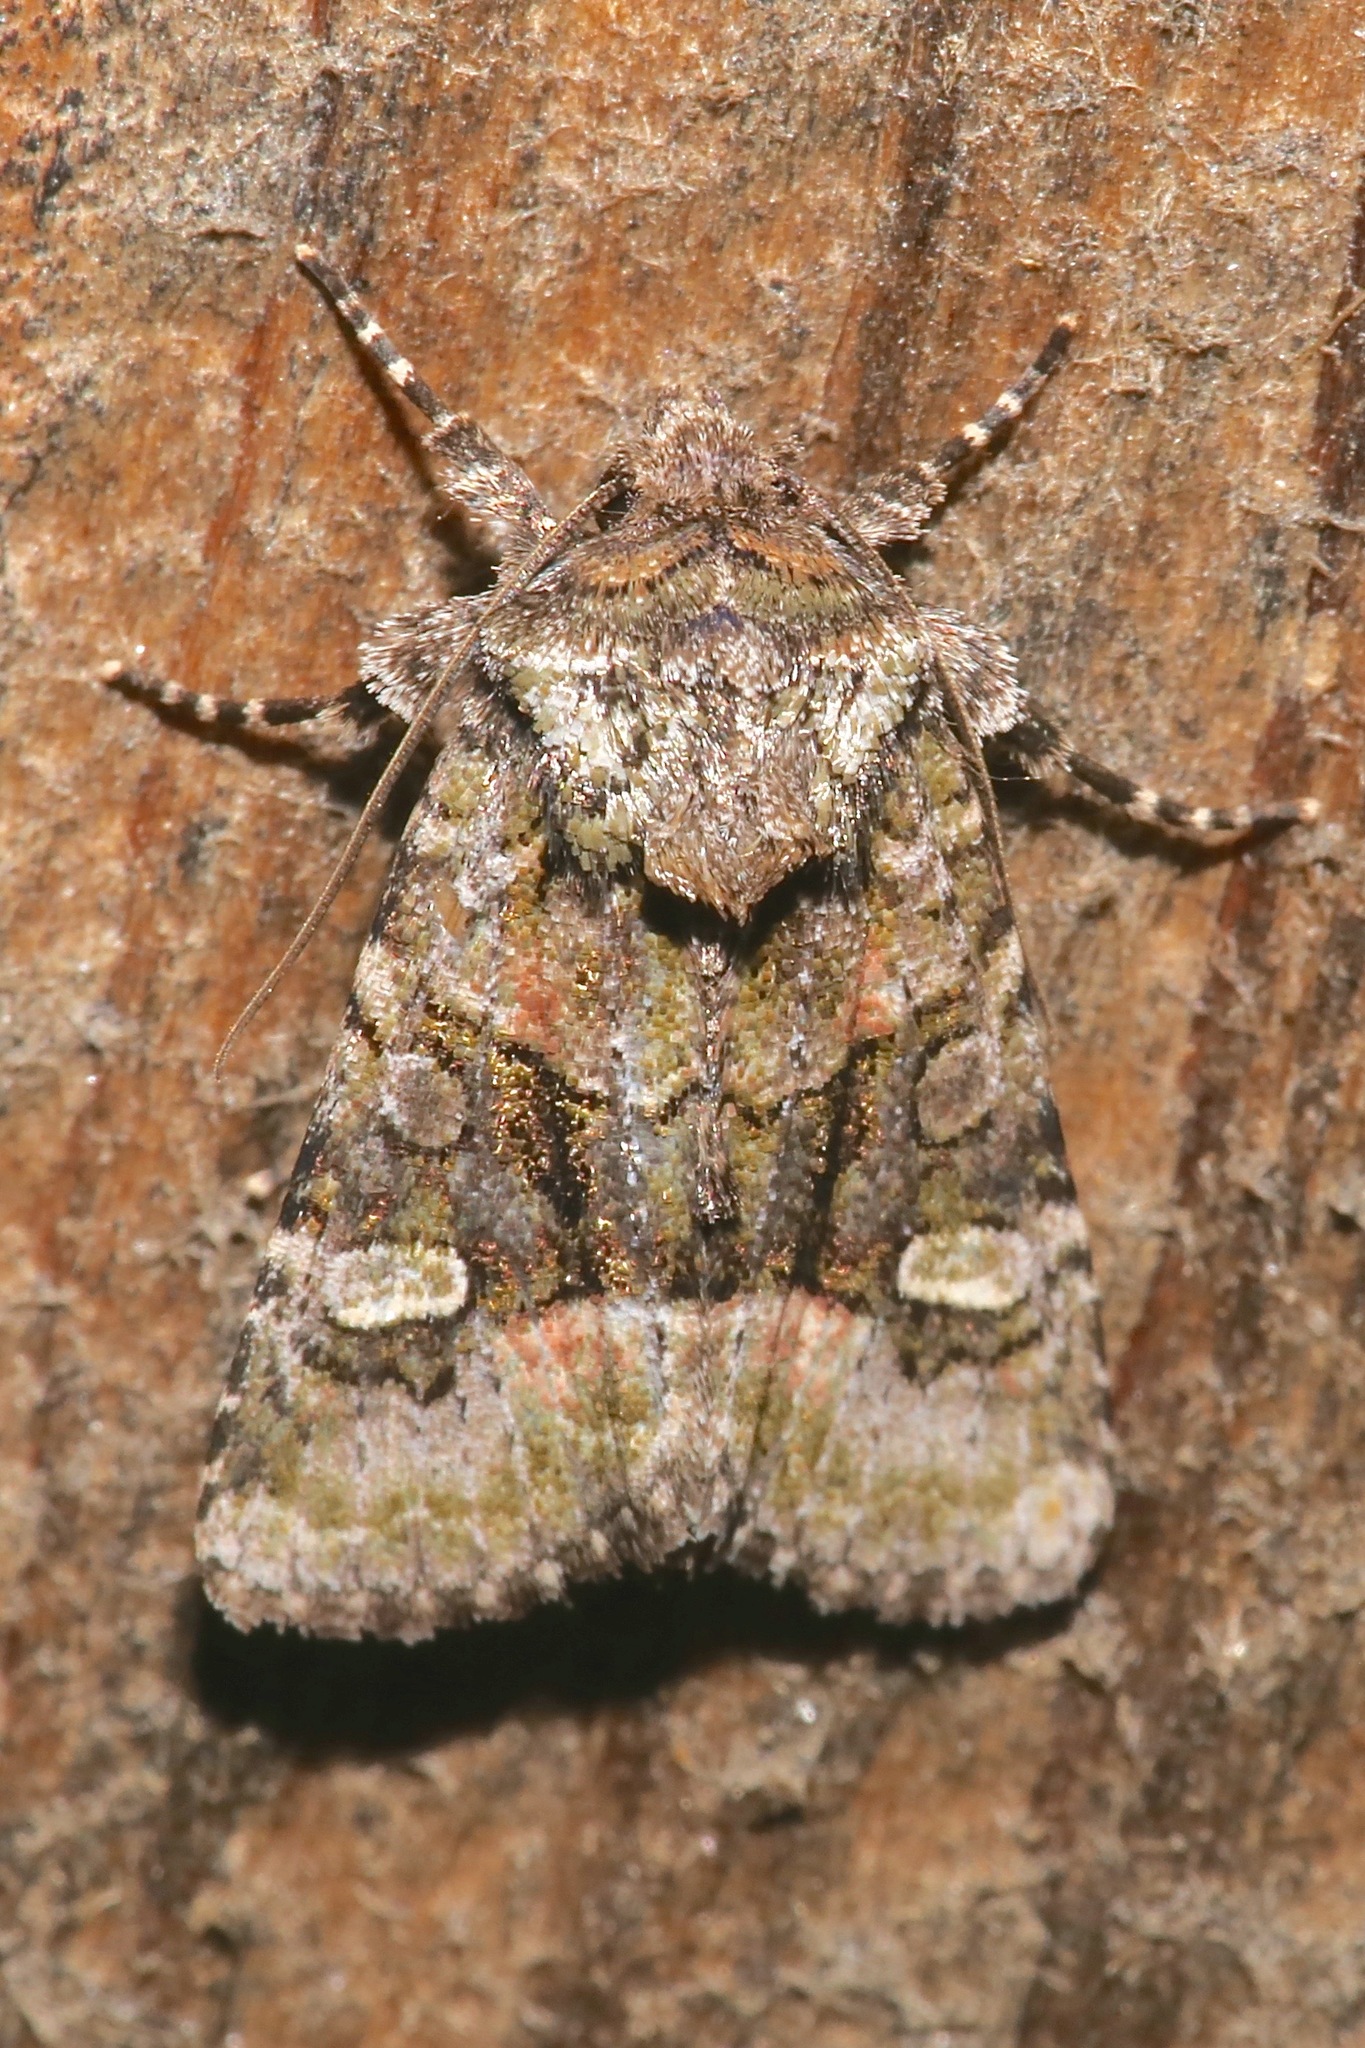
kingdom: Animalia
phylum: Arthropoda
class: Insecta
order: Lepidoptera
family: Noctuidae
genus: Lacinipolia
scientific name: Lacinipolia olivacea
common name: Olive arches moth
